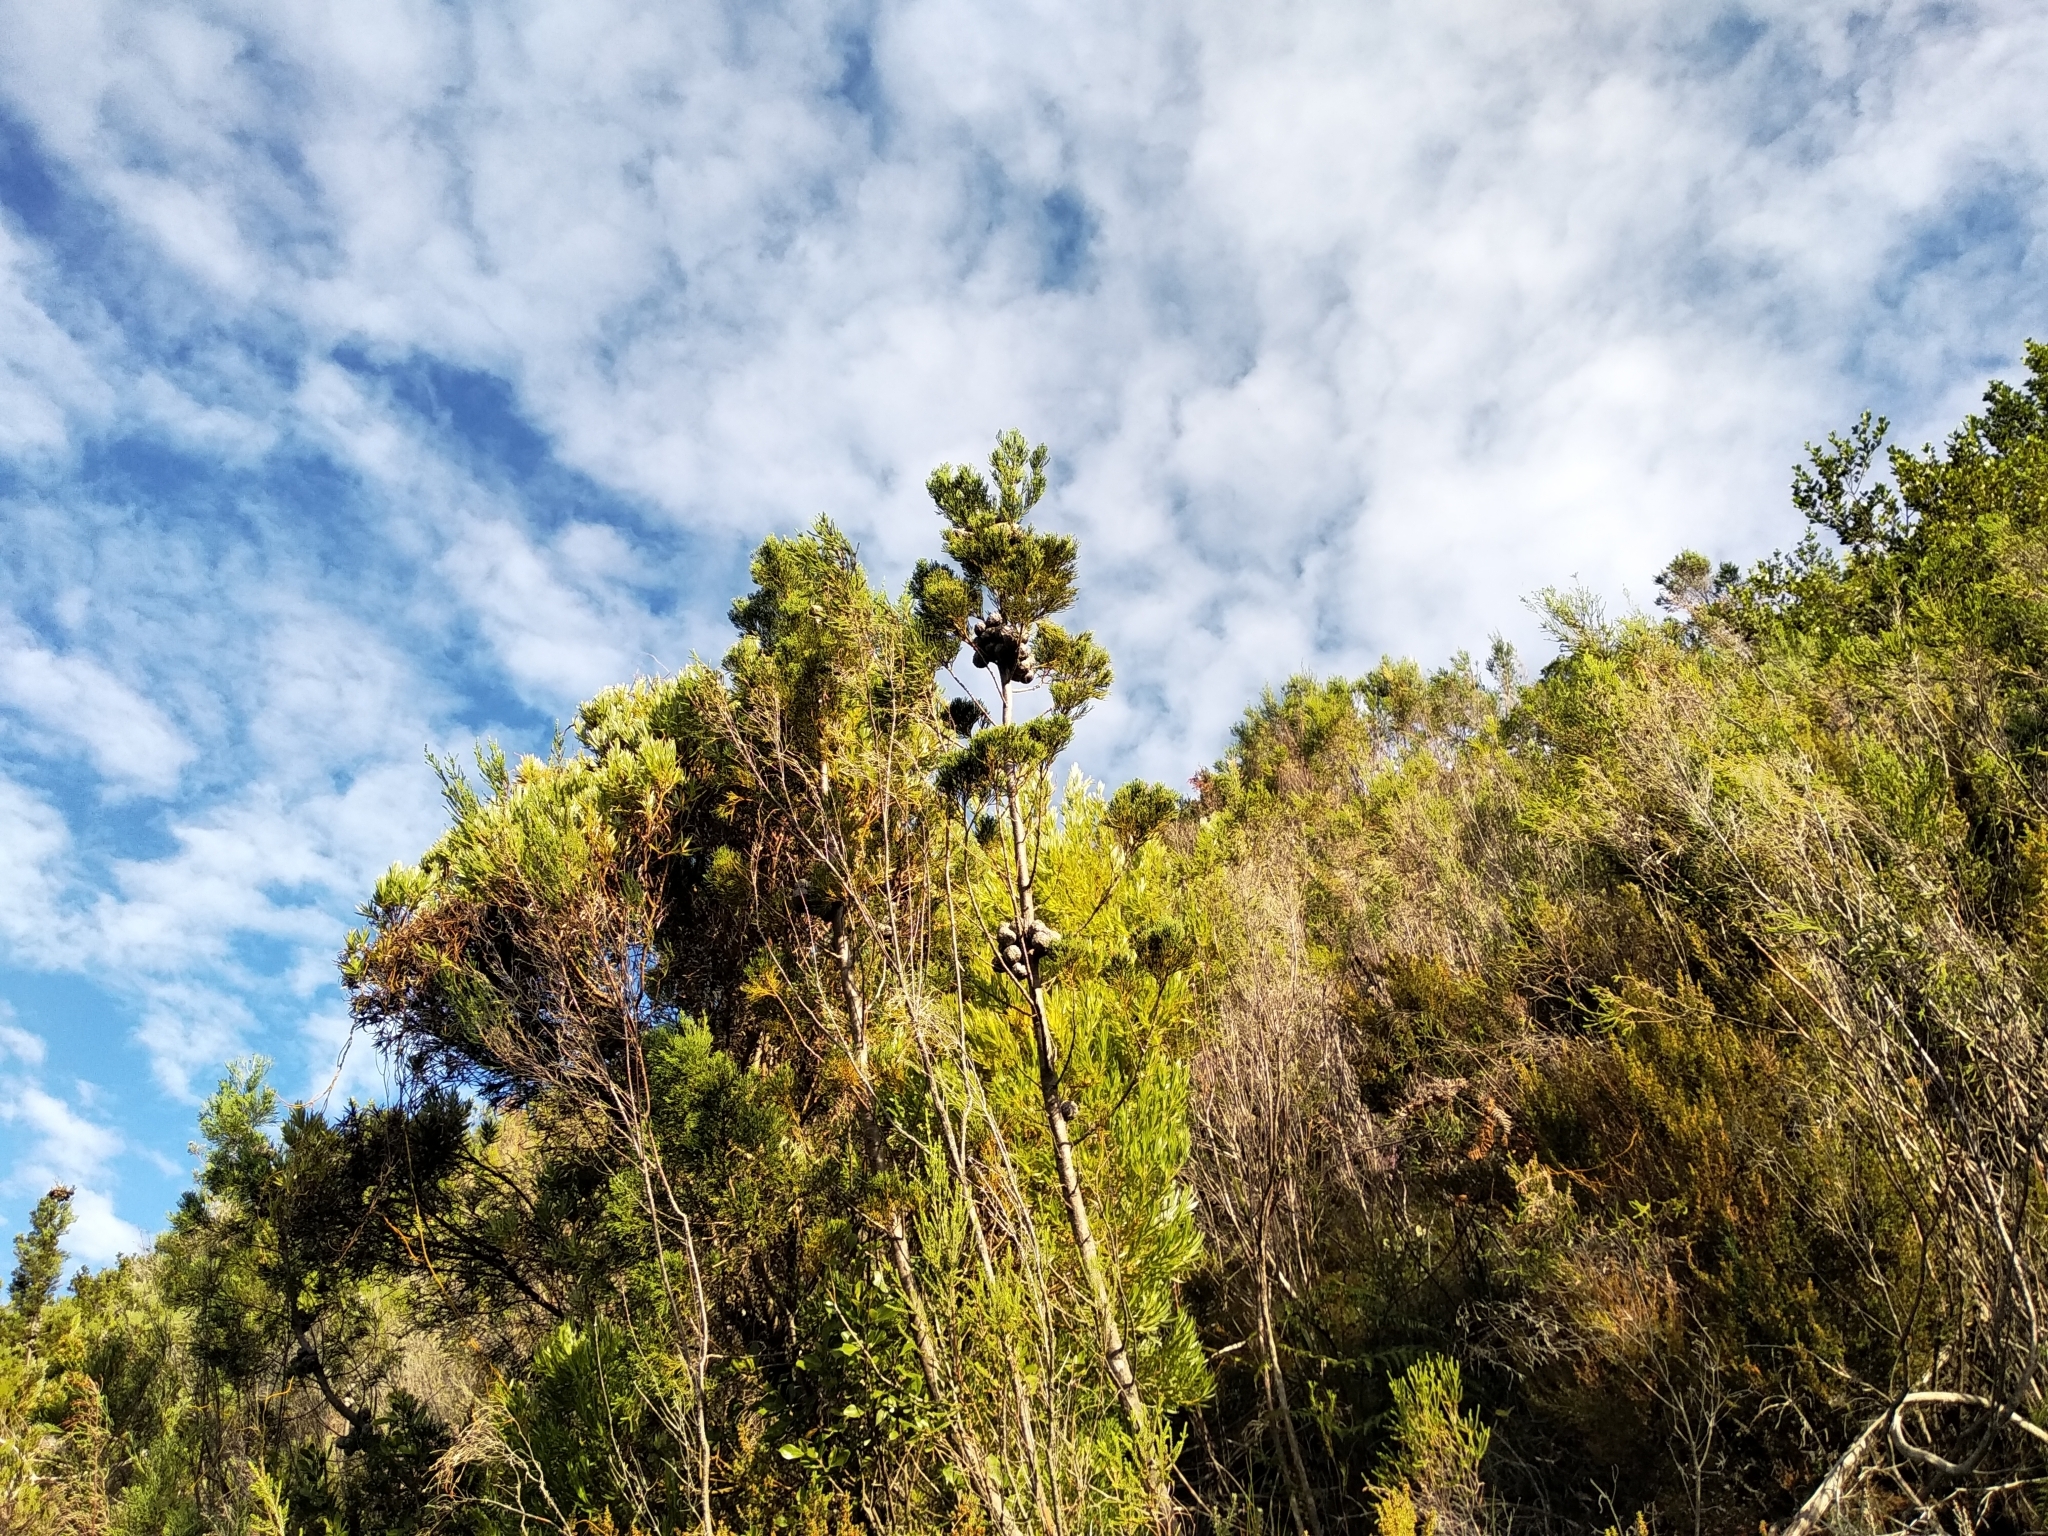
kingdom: Plantae
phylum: Tracheophyta
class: Pinopsida
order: Pinales
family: Cupressaceae
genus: Widdringtonia
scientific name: Widdringtonia nodiflora
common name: Cape cypress
